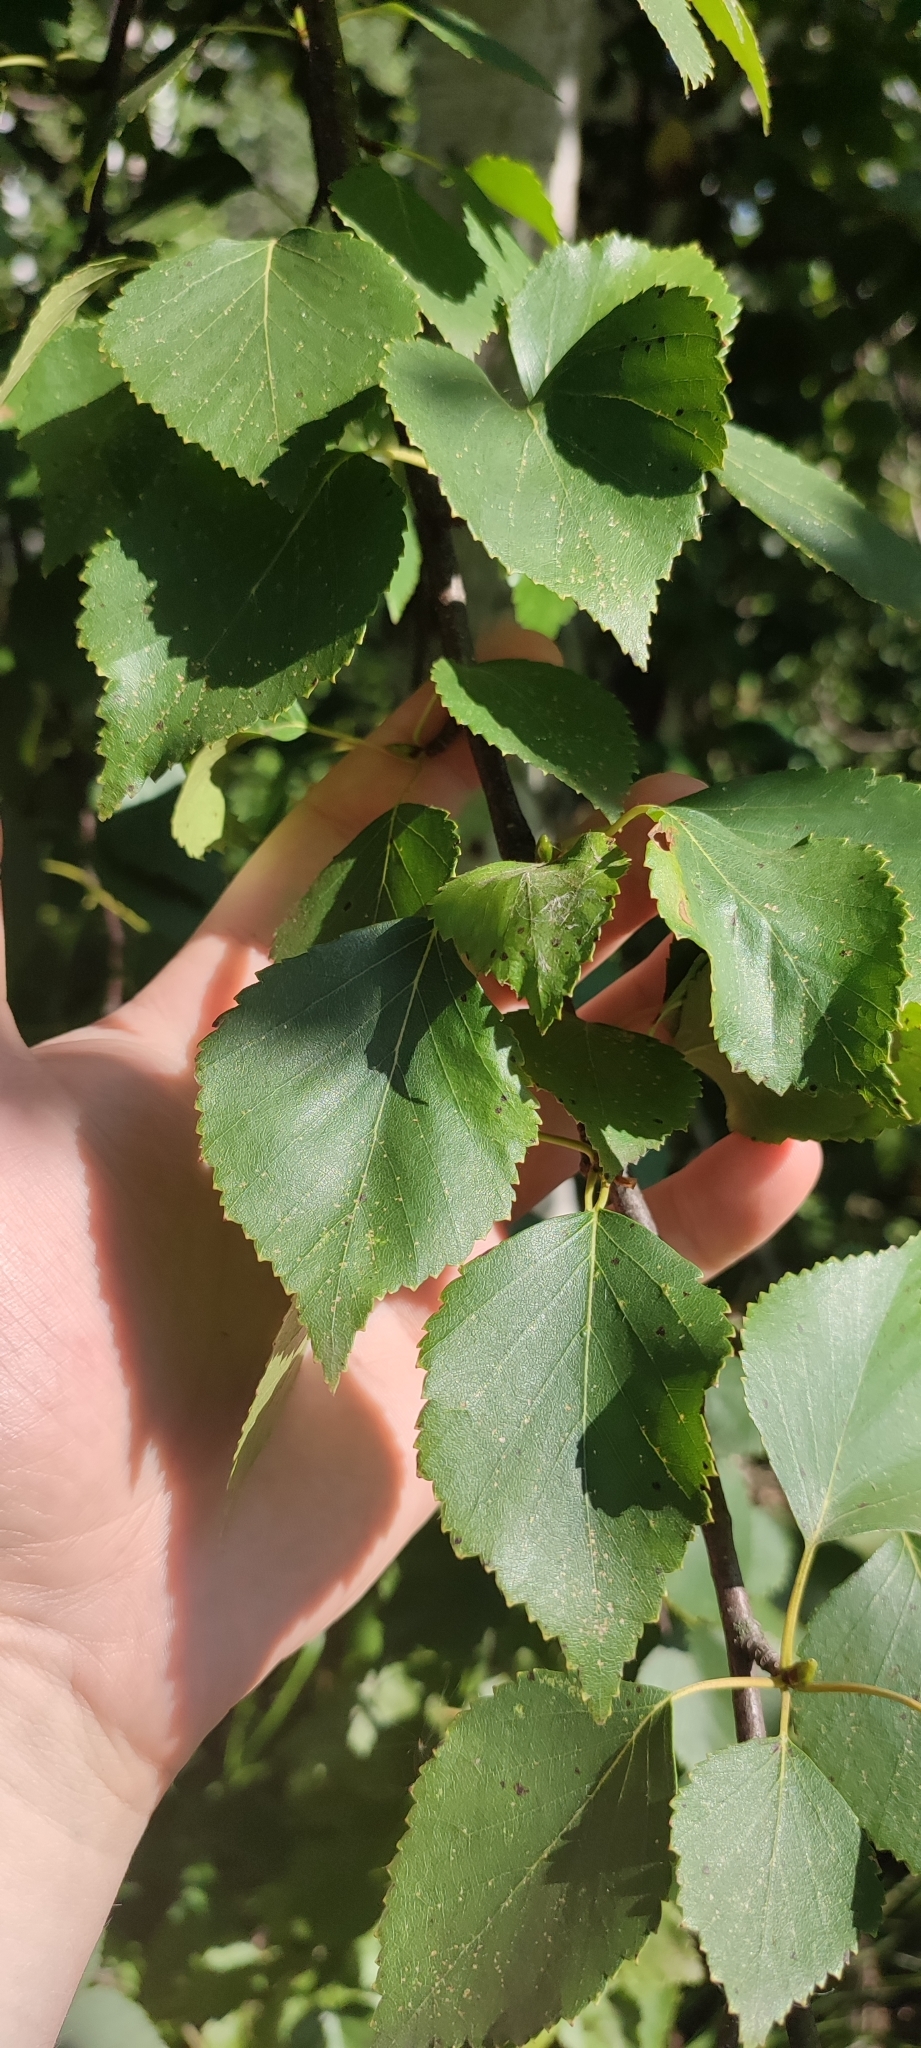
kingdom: Plantae
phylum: Tracheophyta
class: Magnoliopsida
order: Fagales
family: Betulaceae
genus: Betula
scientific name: Betula pendula
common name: Silver birch
